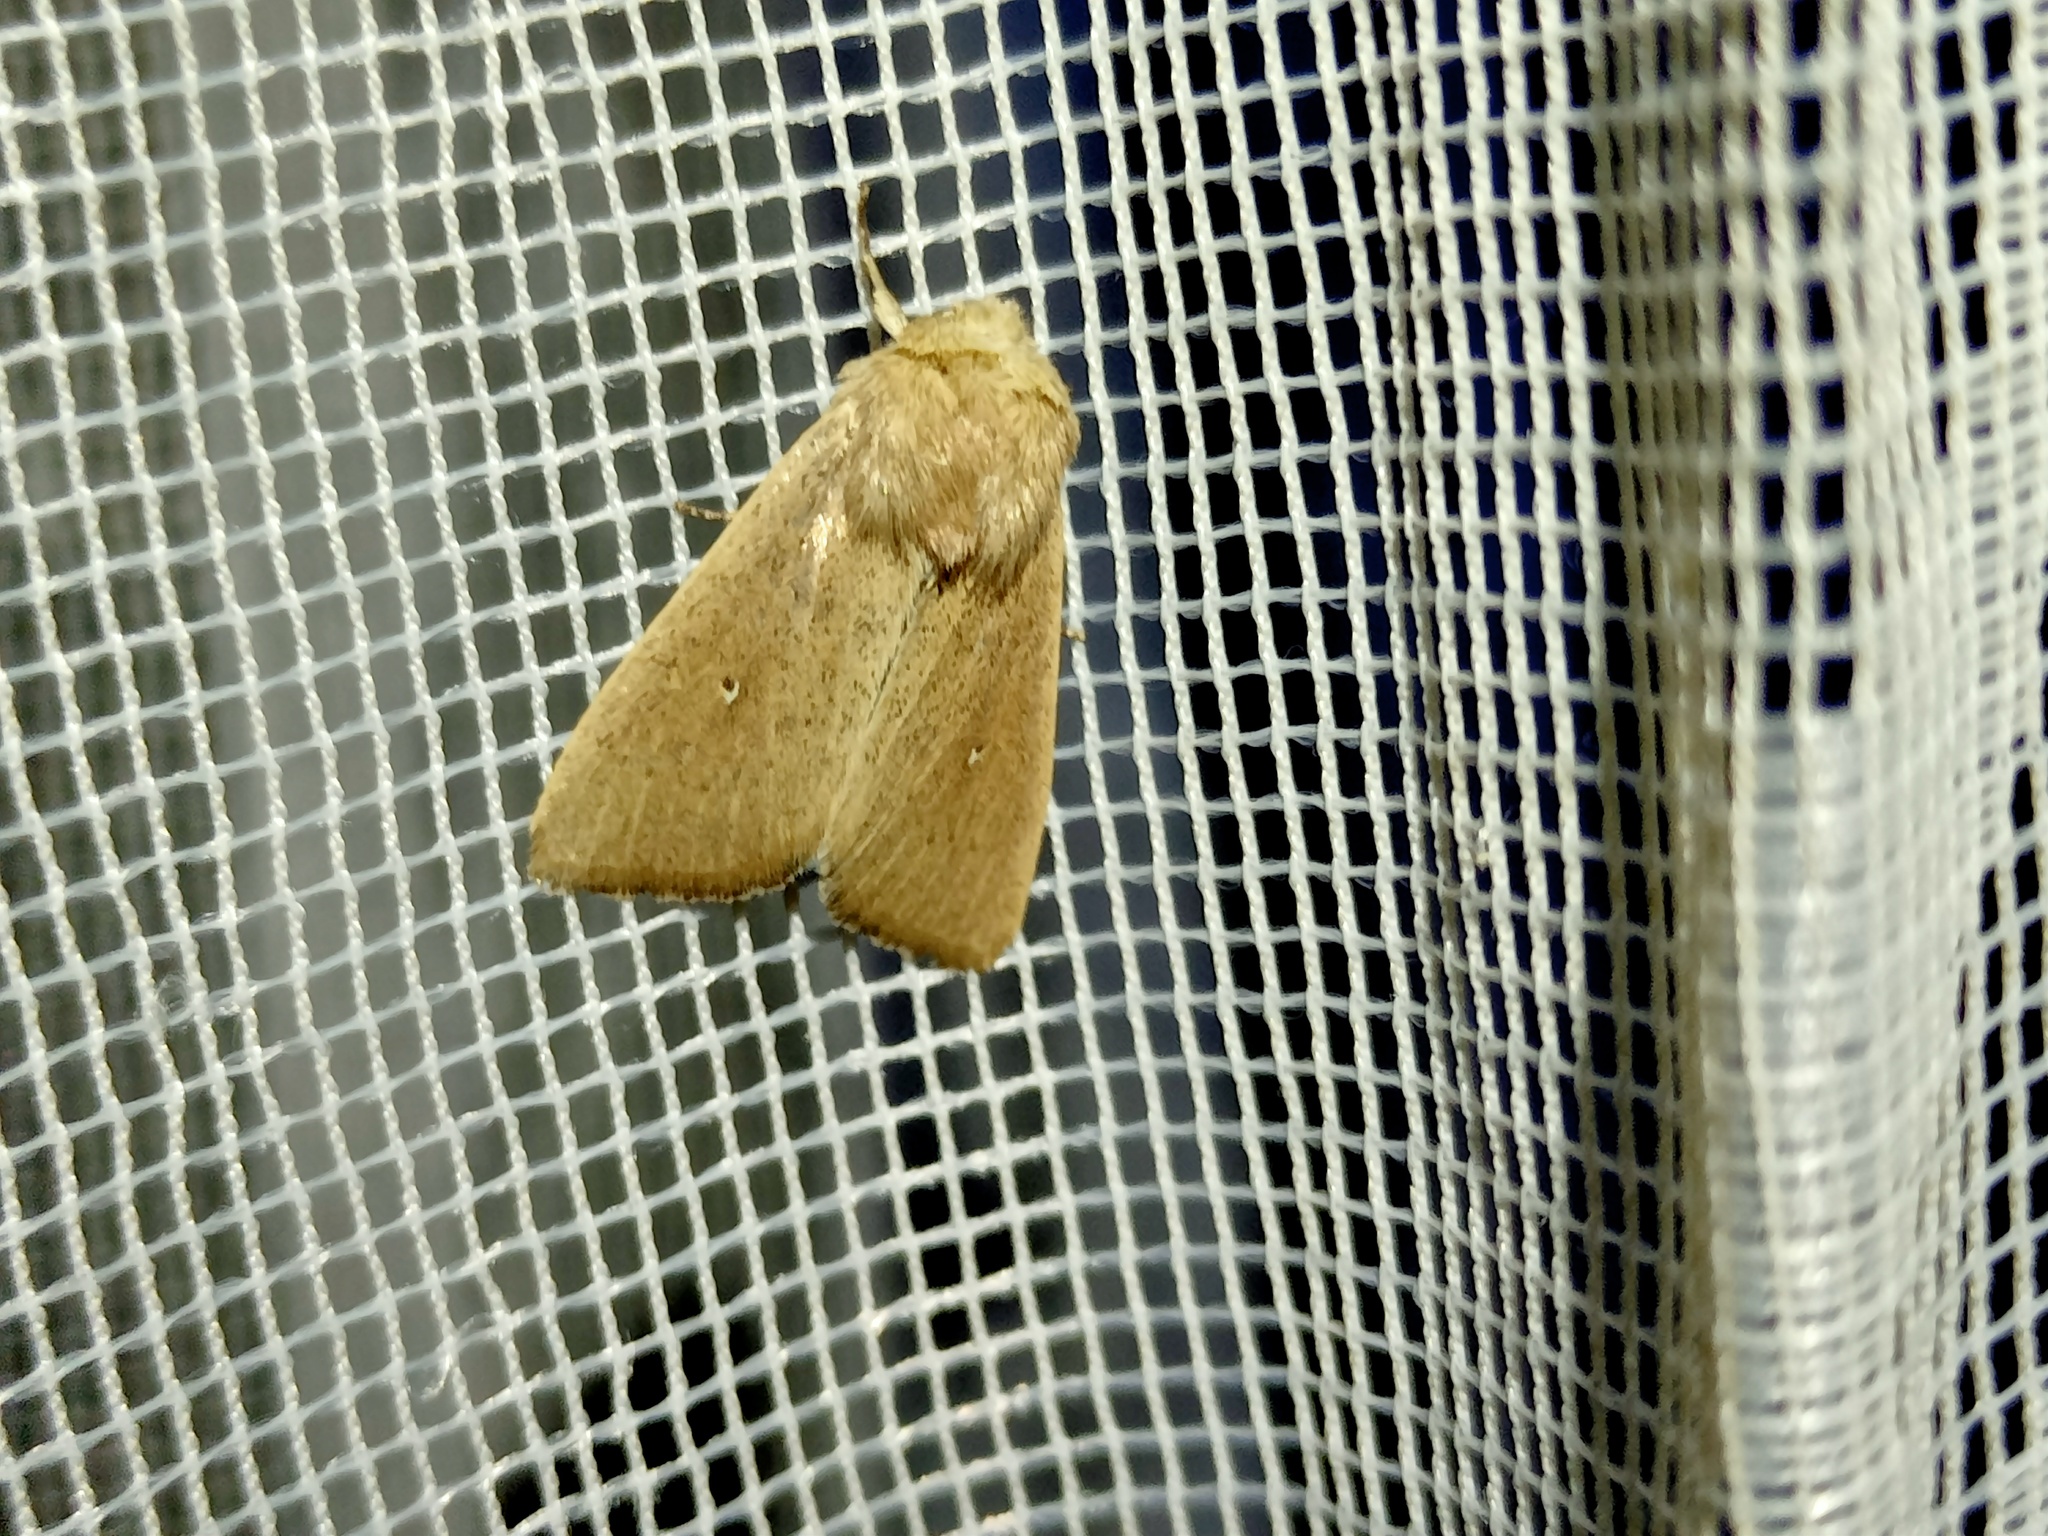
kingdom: Animalia
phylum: Arthropoda
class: Insecta
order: Lepidoptera
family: Noctuidae
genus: Mythimna
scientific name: Mythimna sicula
